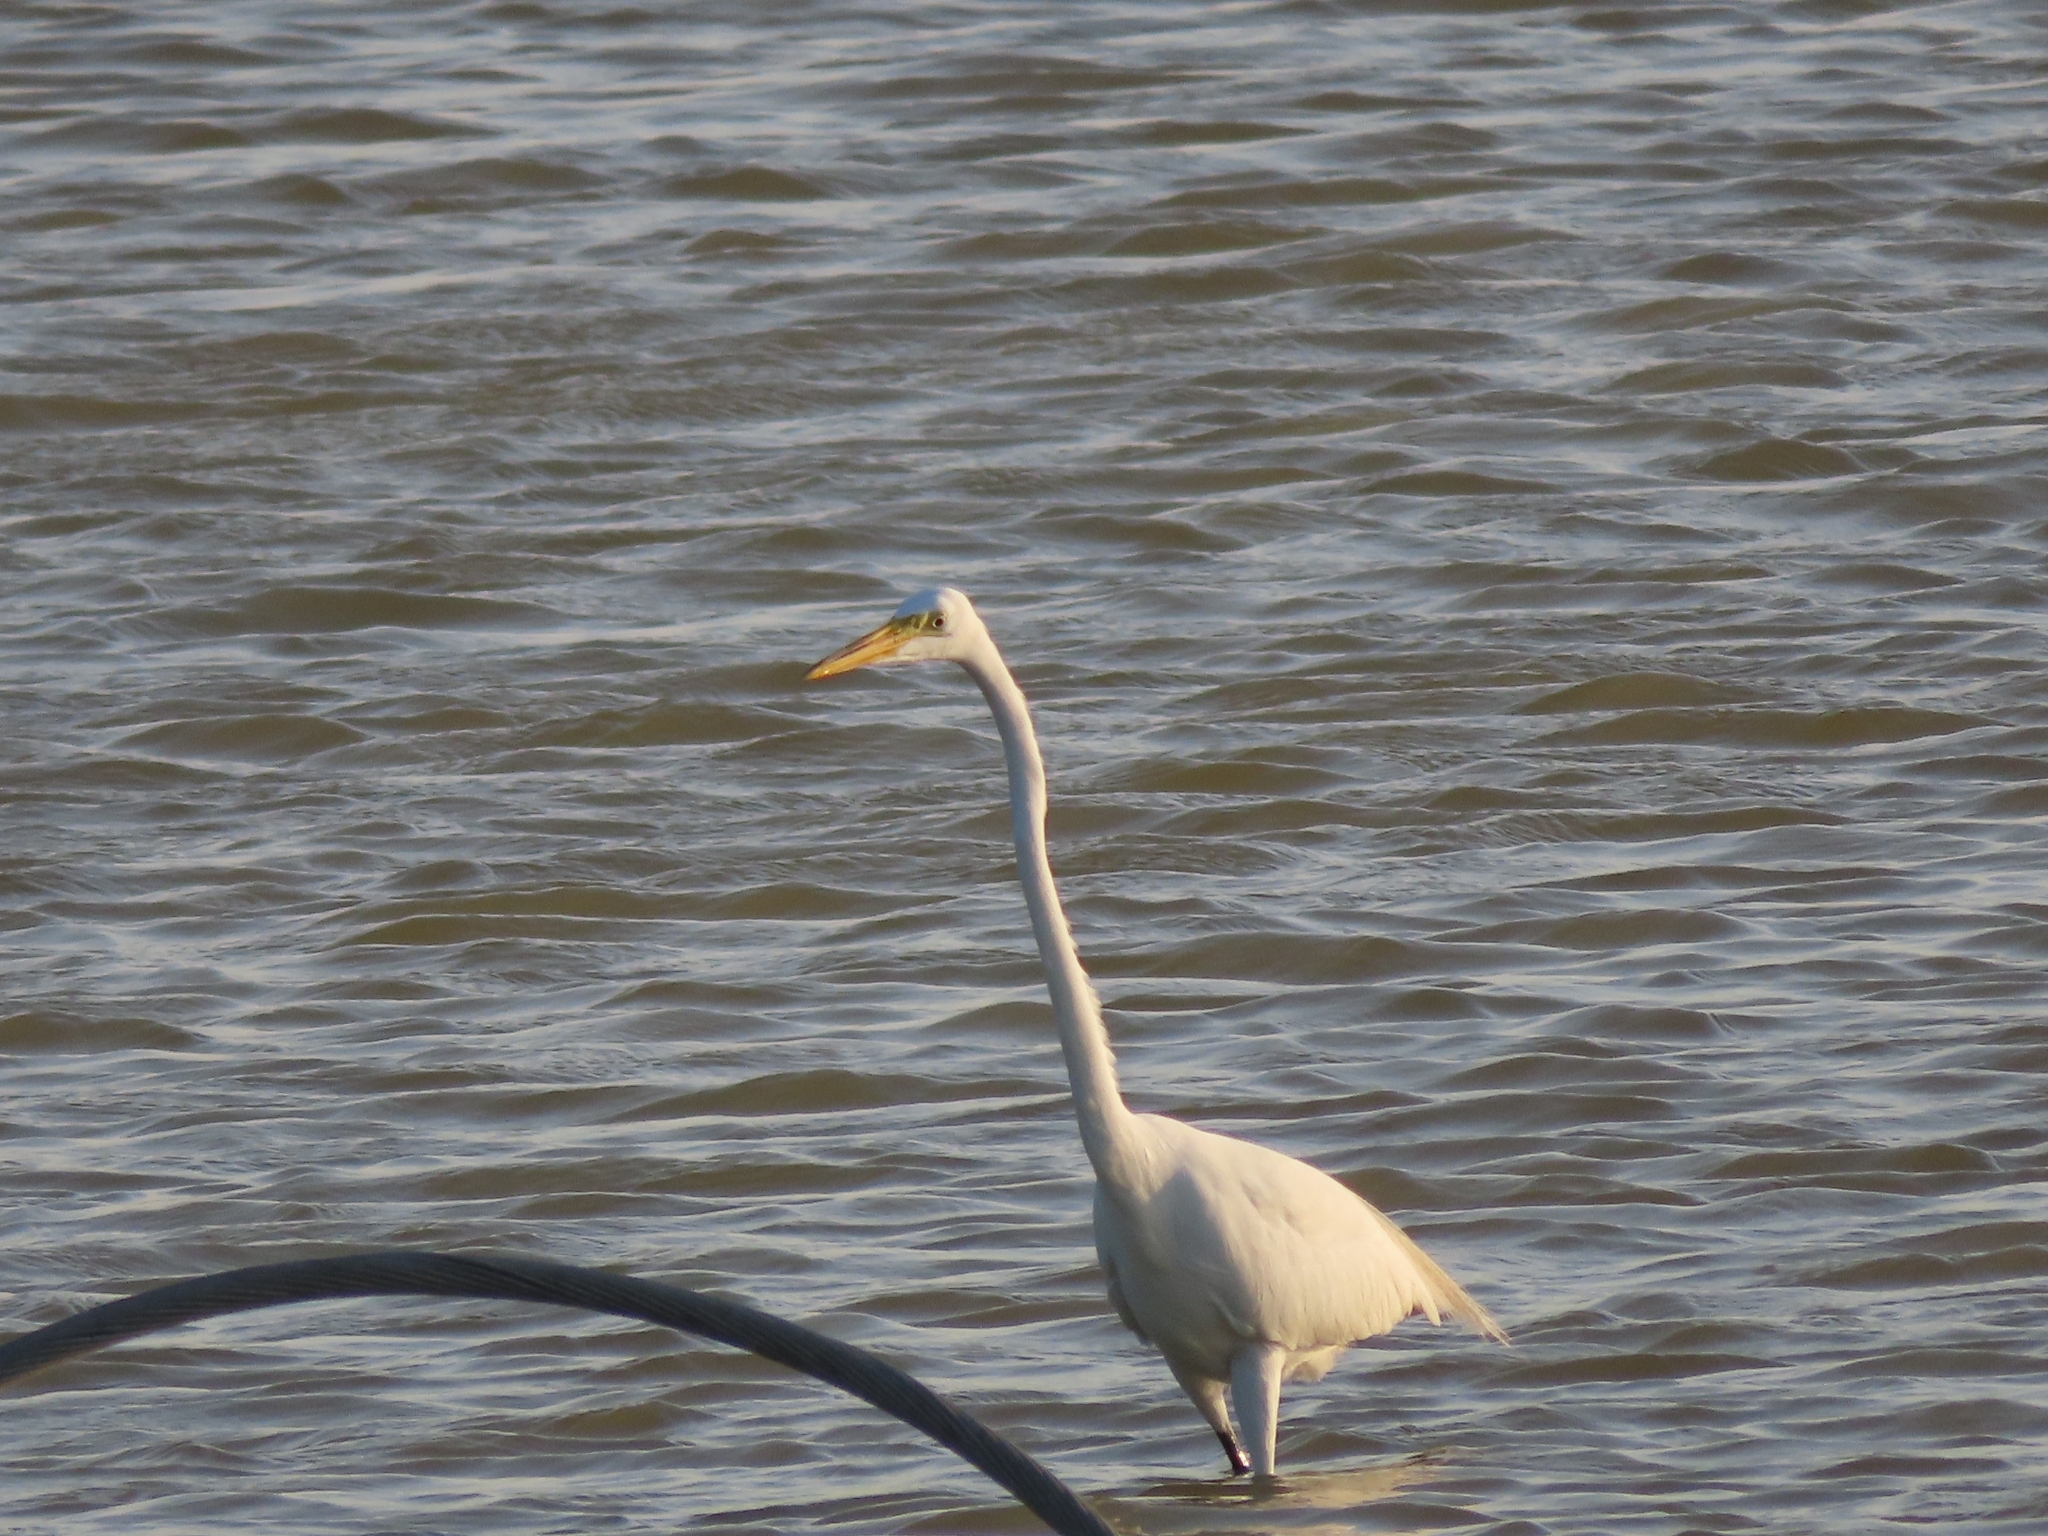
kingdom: Animalia
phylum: Chordata
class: Aves
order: Pelecaniformes
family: Ardeidae
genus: Ardea
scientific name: Ardea alba
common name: Great egret
